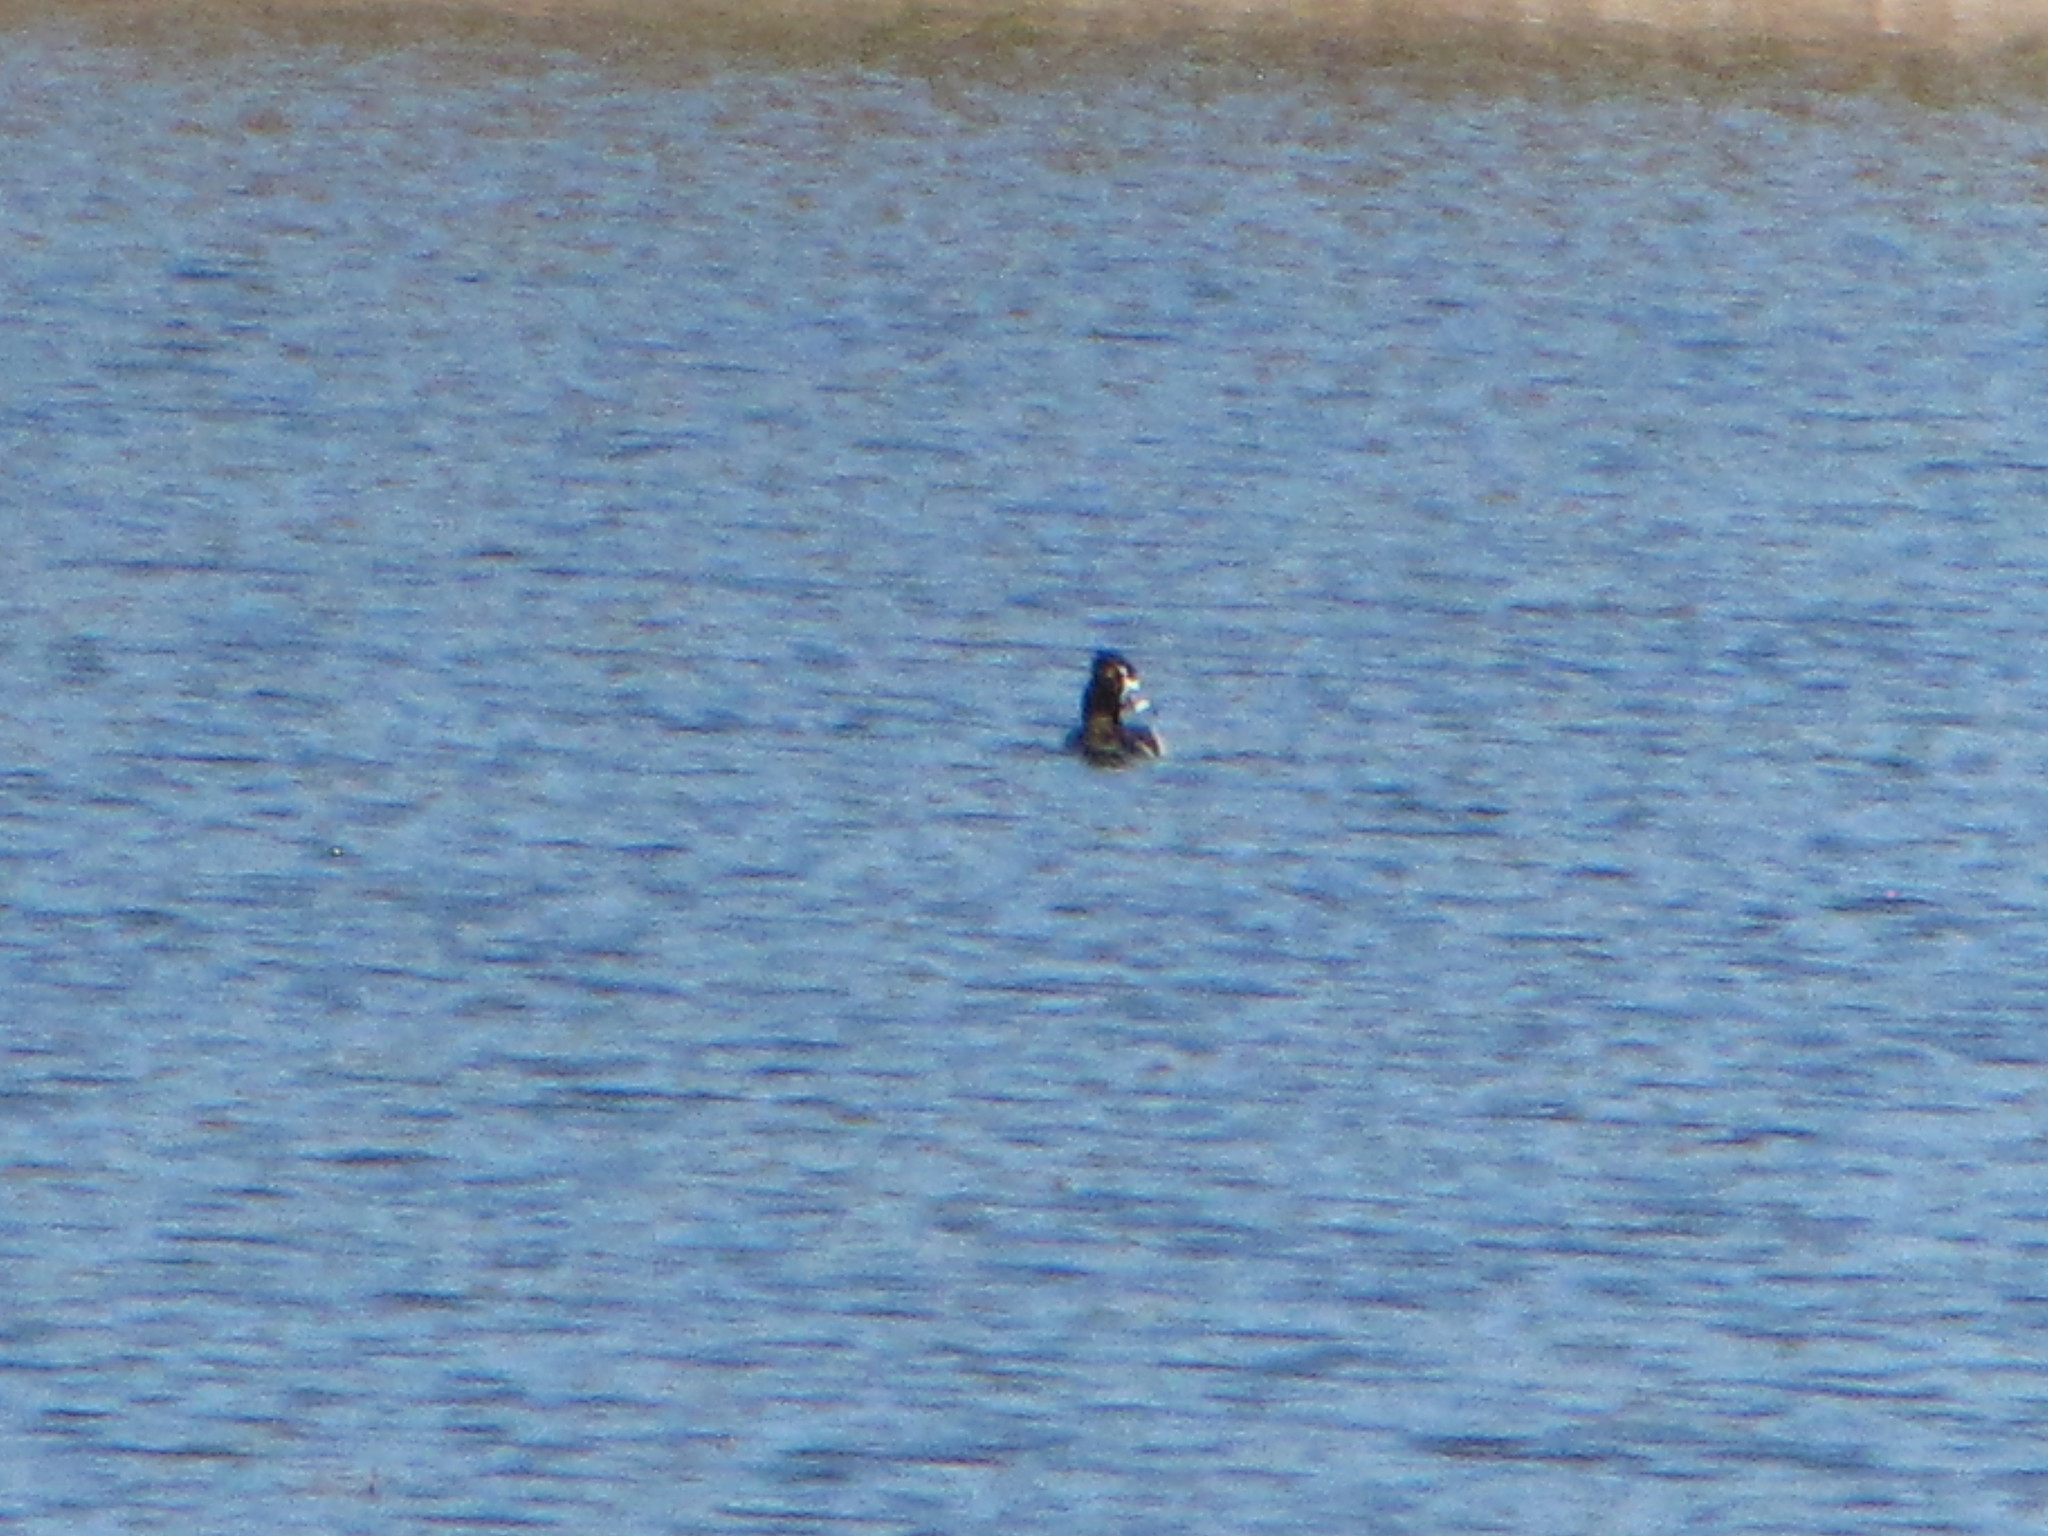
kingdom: Animalia
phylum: Chordata
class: Aves
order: Anseriformes
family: Anatidae
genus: Aythya
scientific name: Aythya collaris
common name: Ring-necked duck
